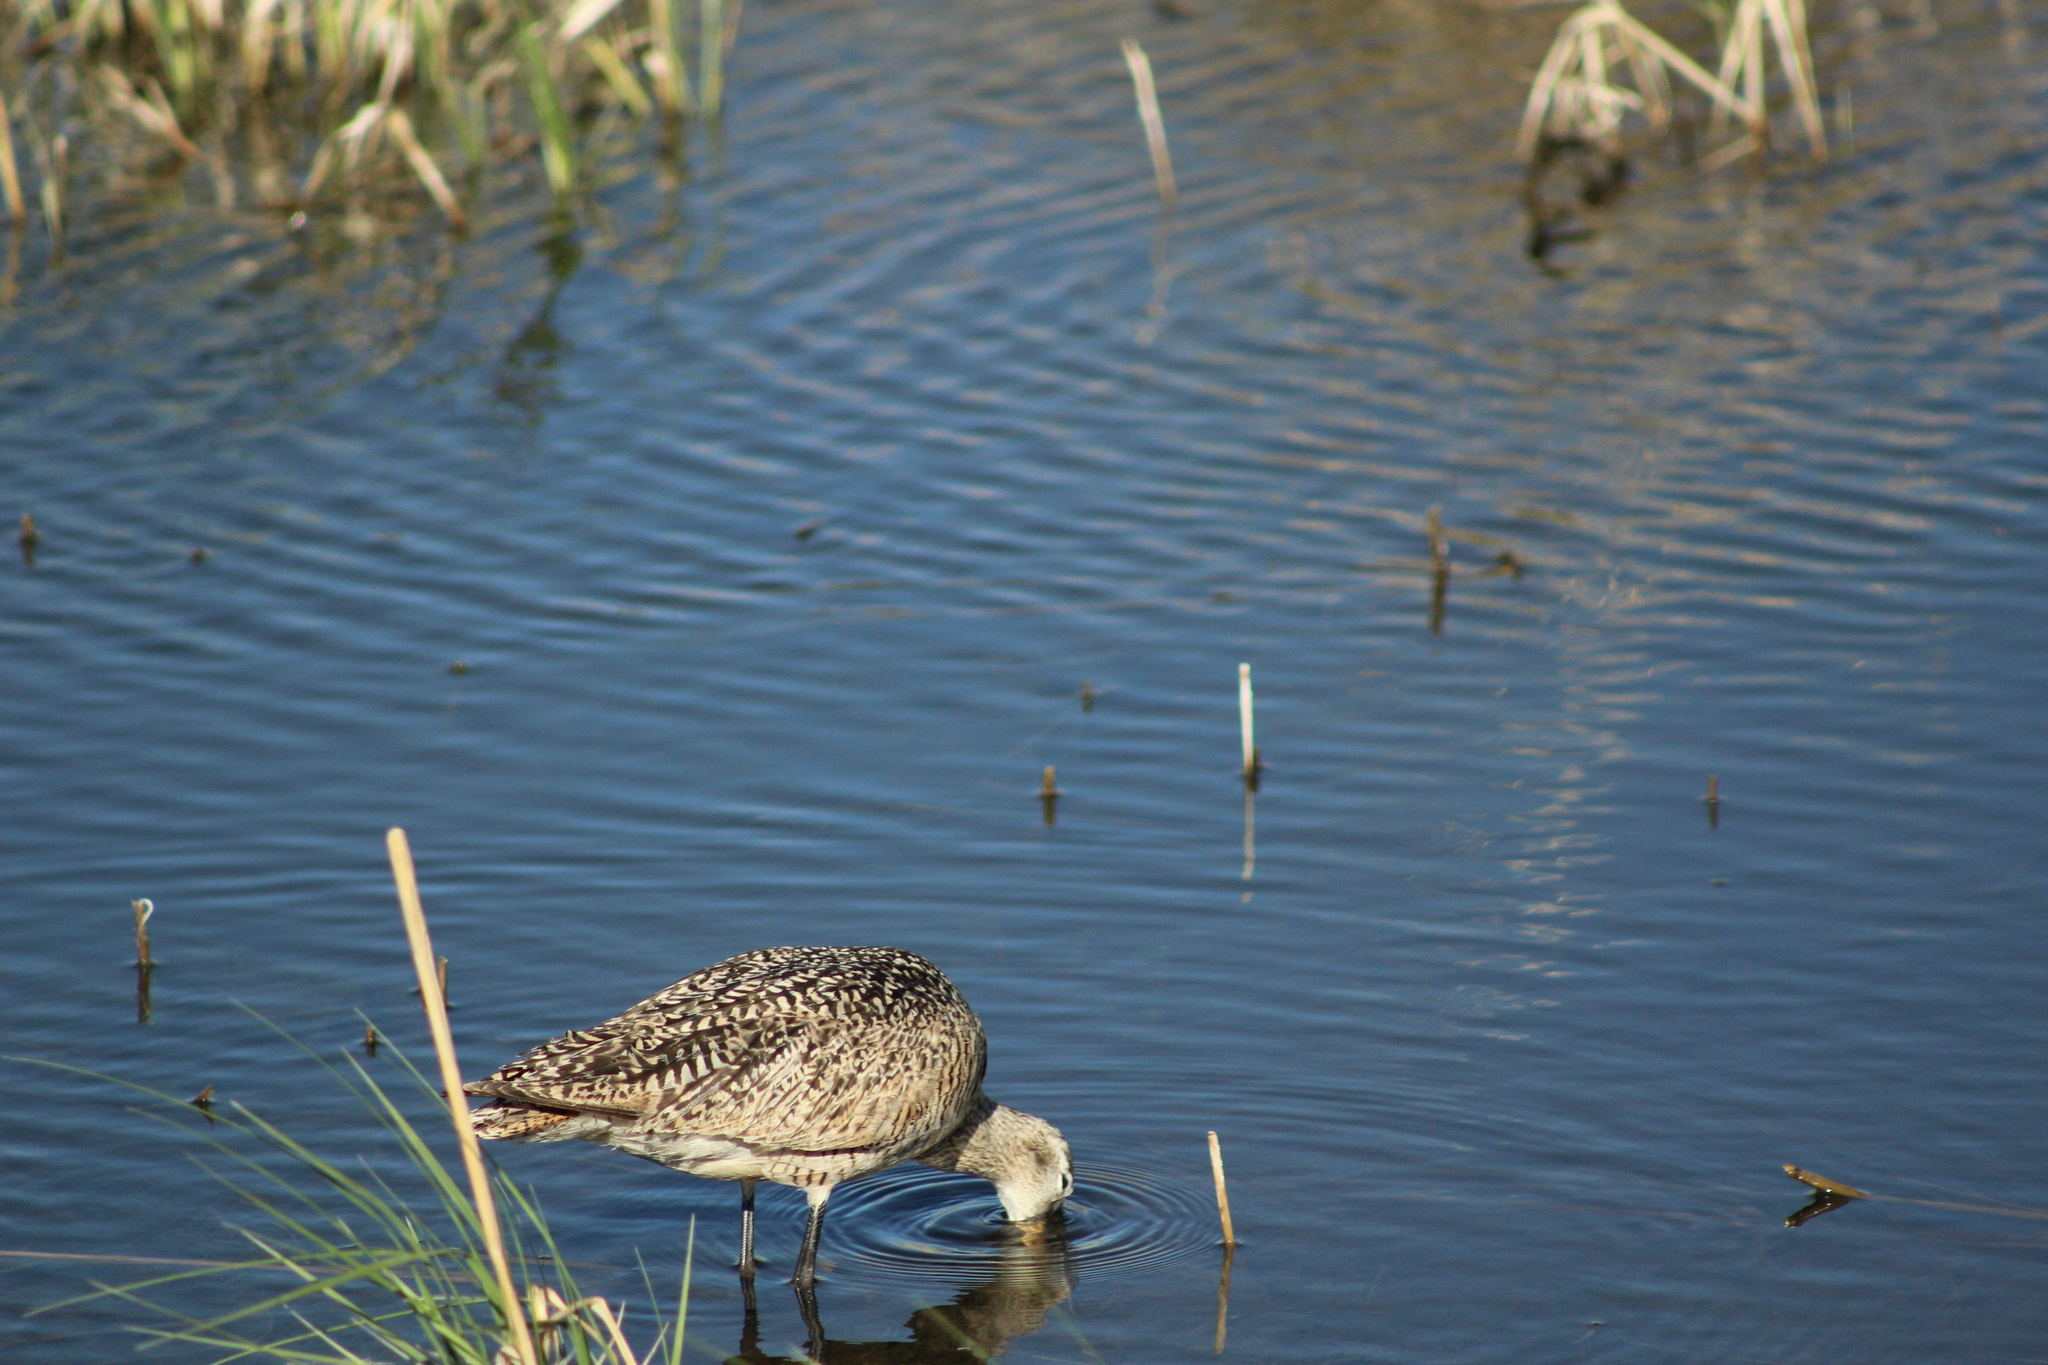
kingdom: Animalia
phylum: Chordata
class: Aves
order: Charadriiformes
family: Scolopacidae
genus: Limosa
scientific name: Limosa fedoa
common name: Marbled godwit
